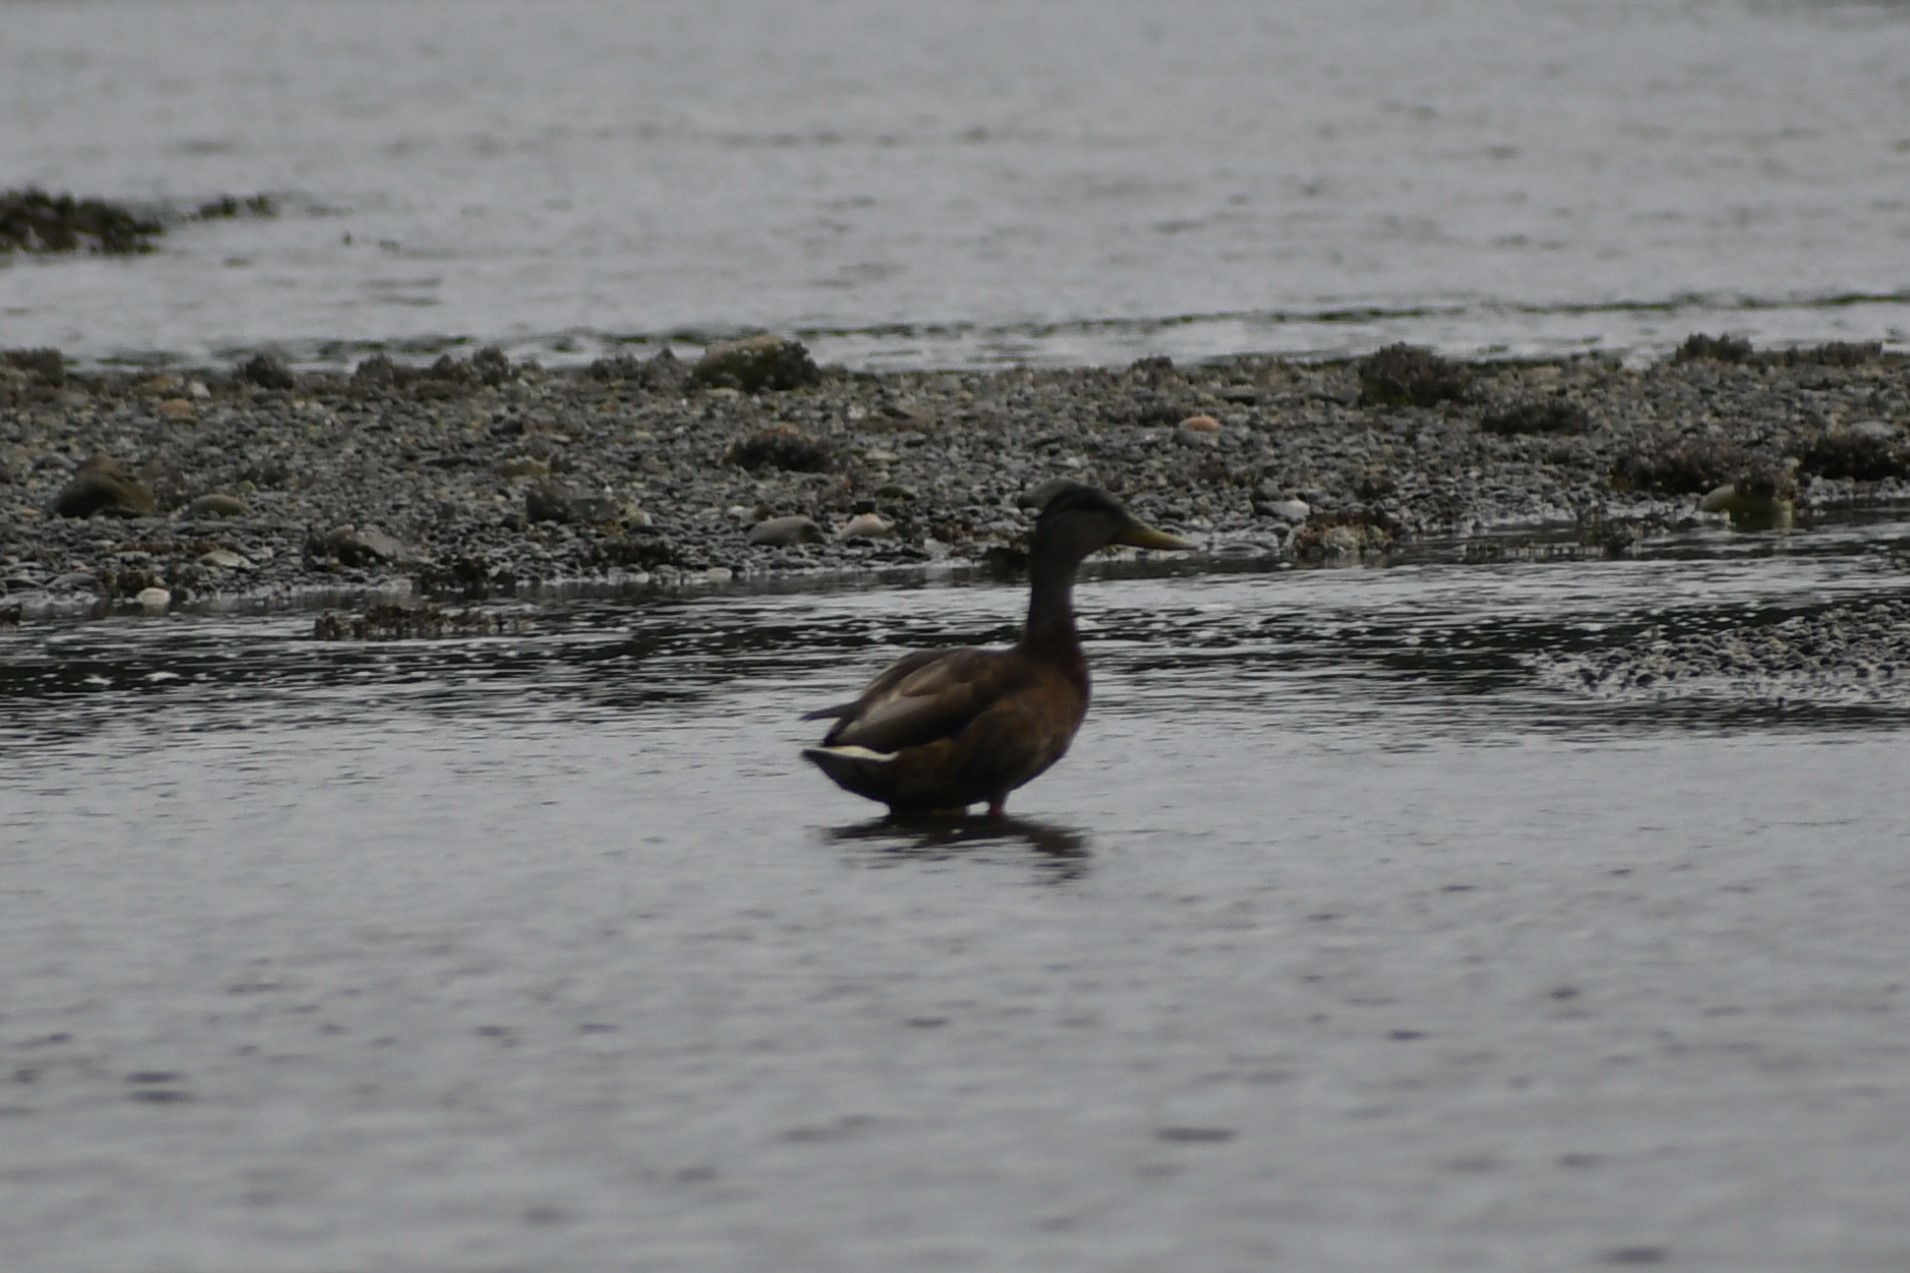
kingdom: Animalia
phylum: Chordata
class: Aves
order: Anseriformes
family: Anatidae
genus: Anas
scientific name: Anas platyrhynchos
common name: Mallard
